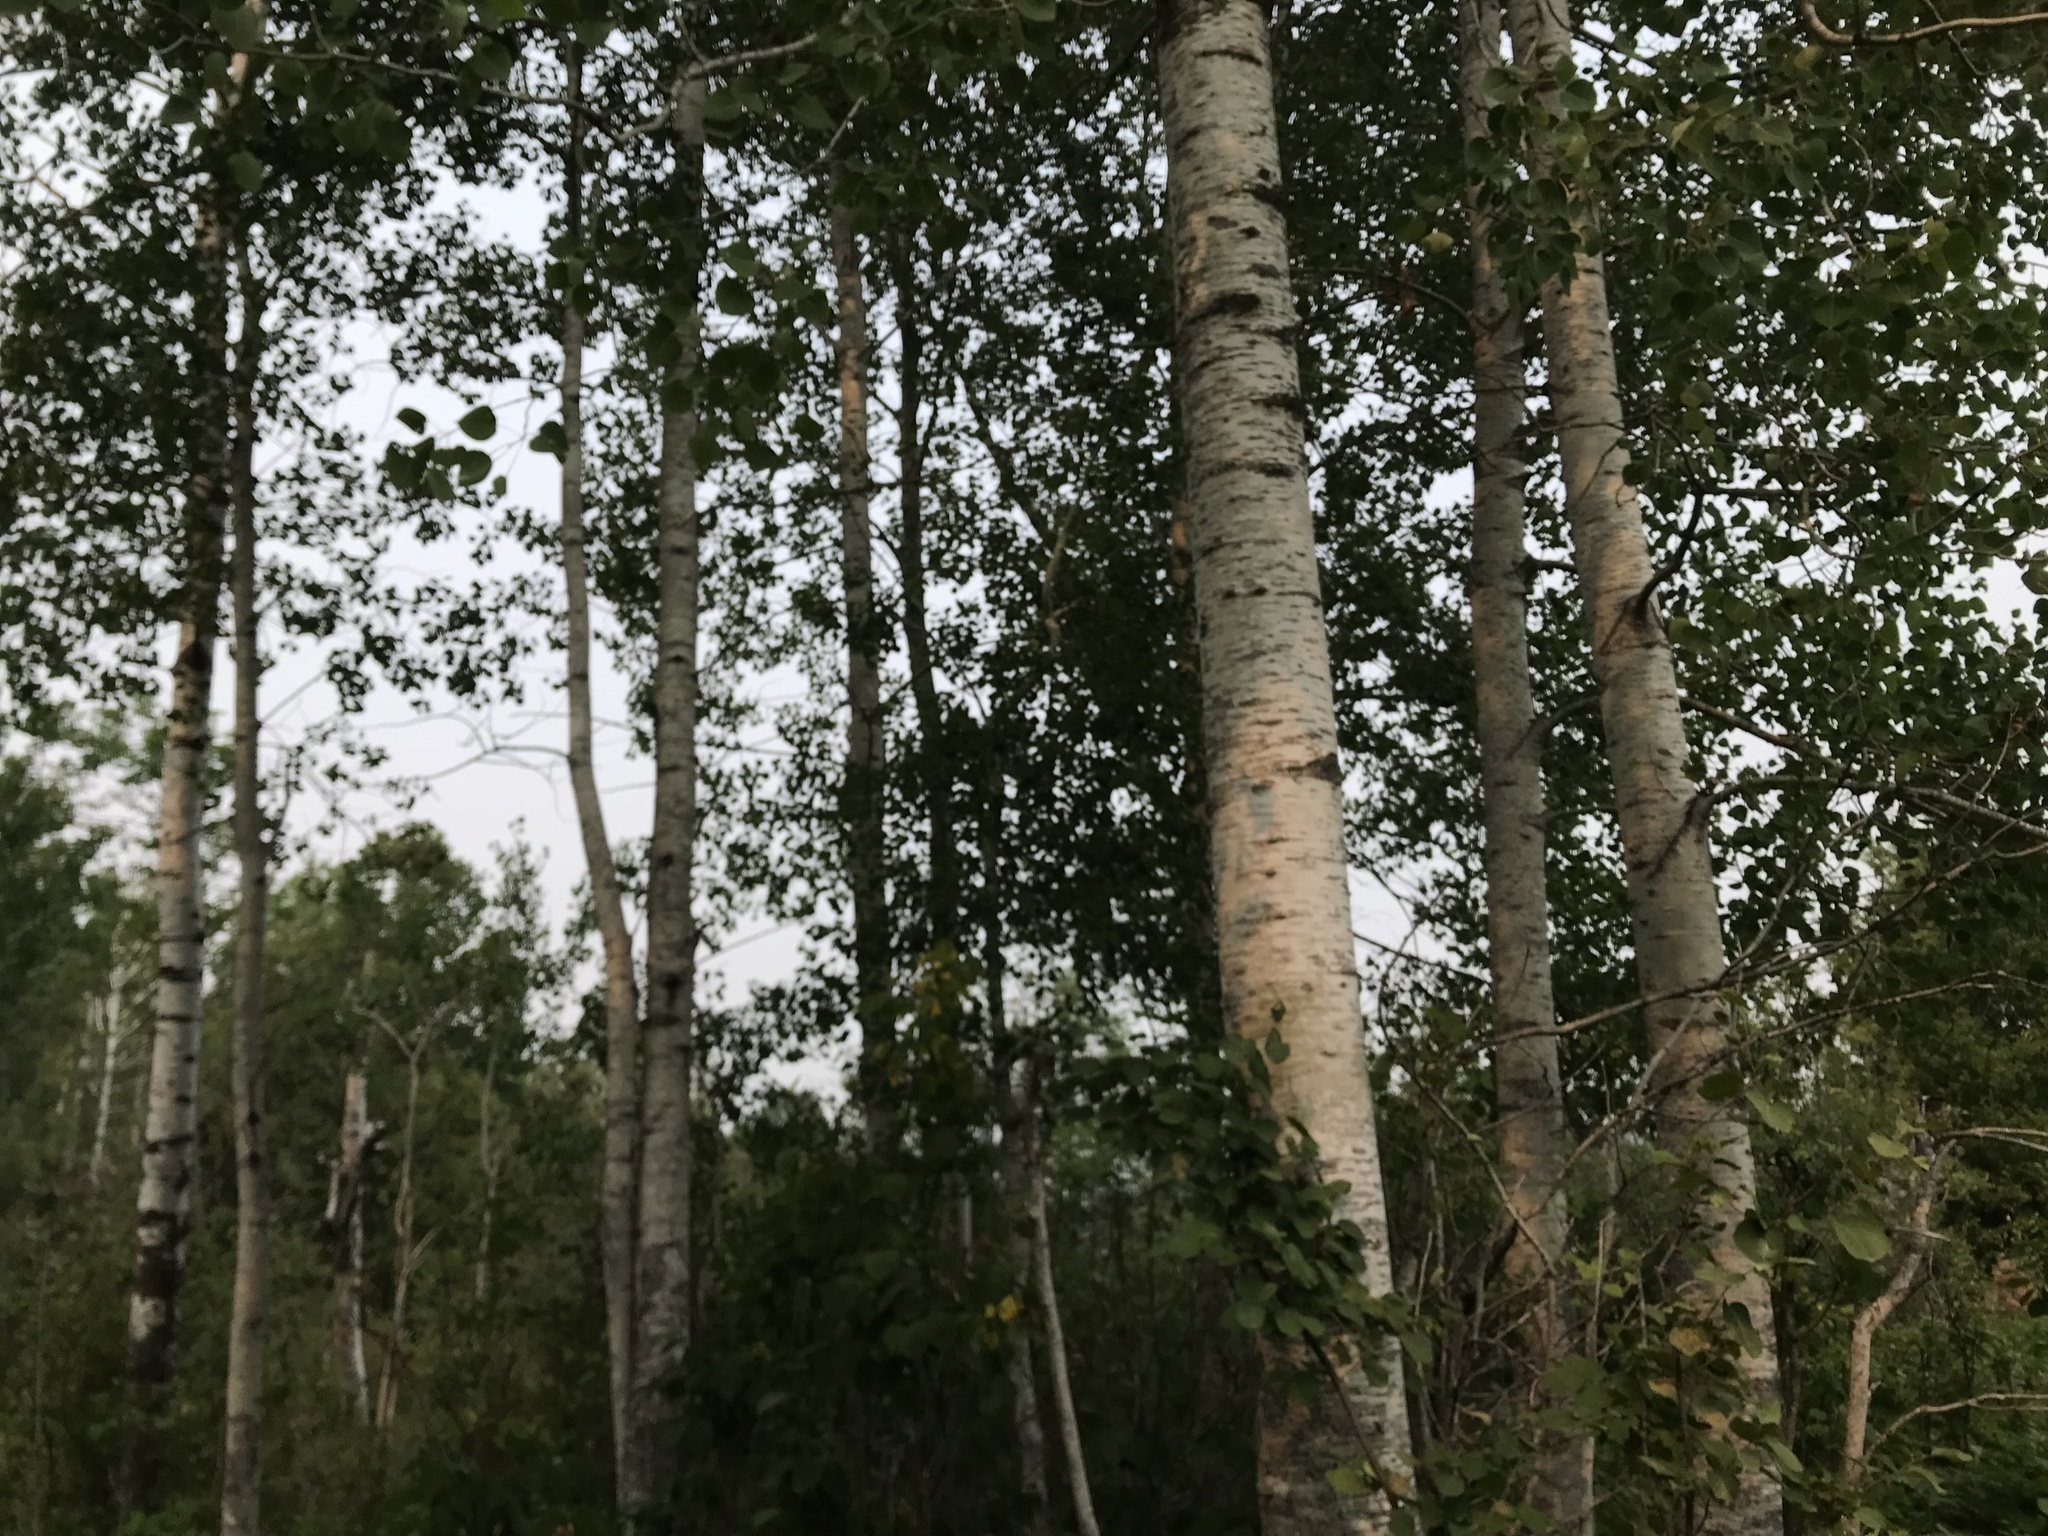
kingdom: Plantae
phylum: Tracheophyta
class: Magnoliopsida
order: Malpighiales
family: Salicaceae
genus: Populus
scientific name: Populus tremuloides
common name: Quaking aspen
